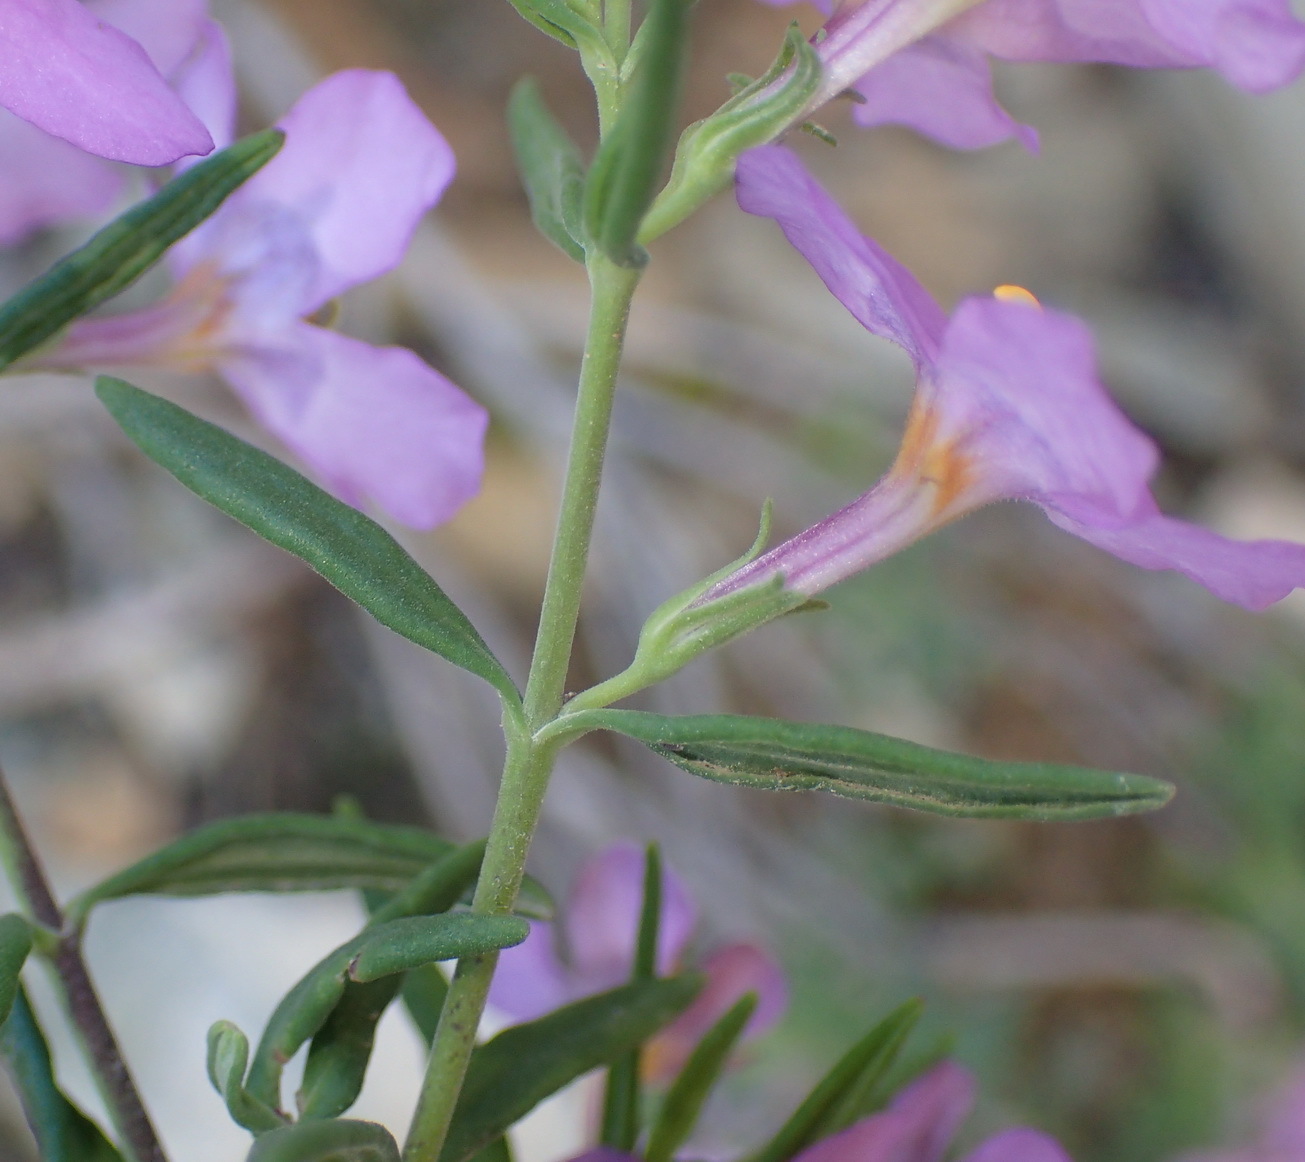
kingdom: Plantae
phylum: Tracheophyta
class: Magnoliopsida
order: Lamiales
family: Scrophulariaceae
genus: Chaenostoma
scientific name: Chaenostoma revolutum
